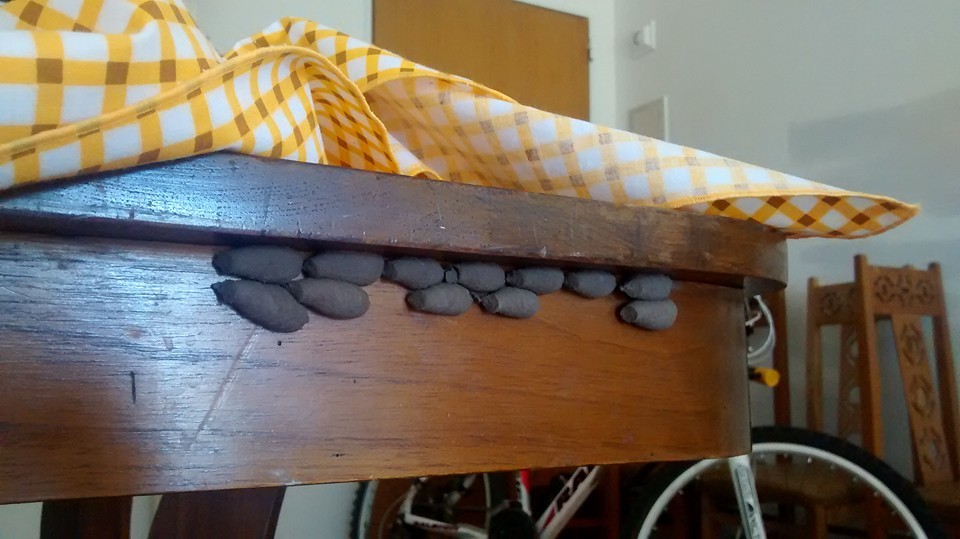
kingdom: Animalia
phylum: Arthropoda
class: Insecta
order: Hymenoptera
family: Sphecidae
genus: Sceliphron
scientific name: Sceliphron curvatum
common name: Pèlopèe
